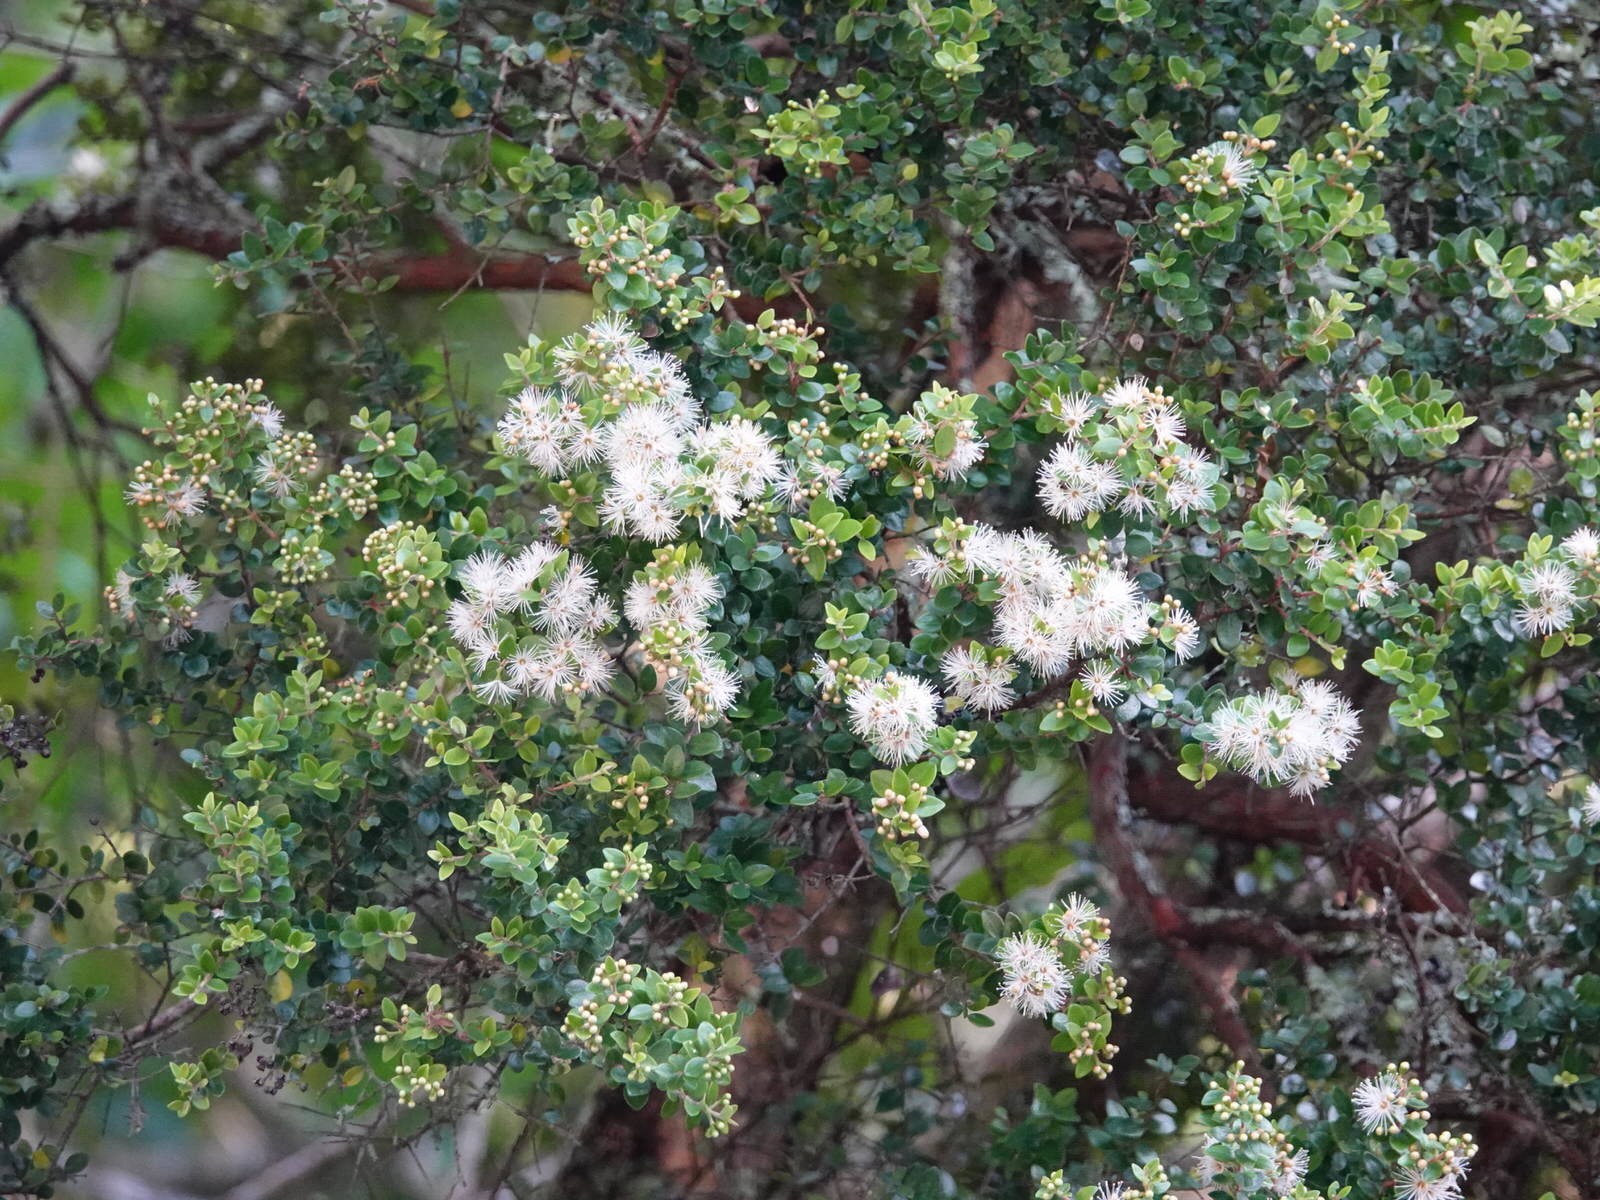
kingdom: Plantae
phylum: Tracheophyta
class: Magnoliopsida
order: Myrtales
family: Myrtaceae
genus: Metrosideros
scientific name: Metrosideros perforata
